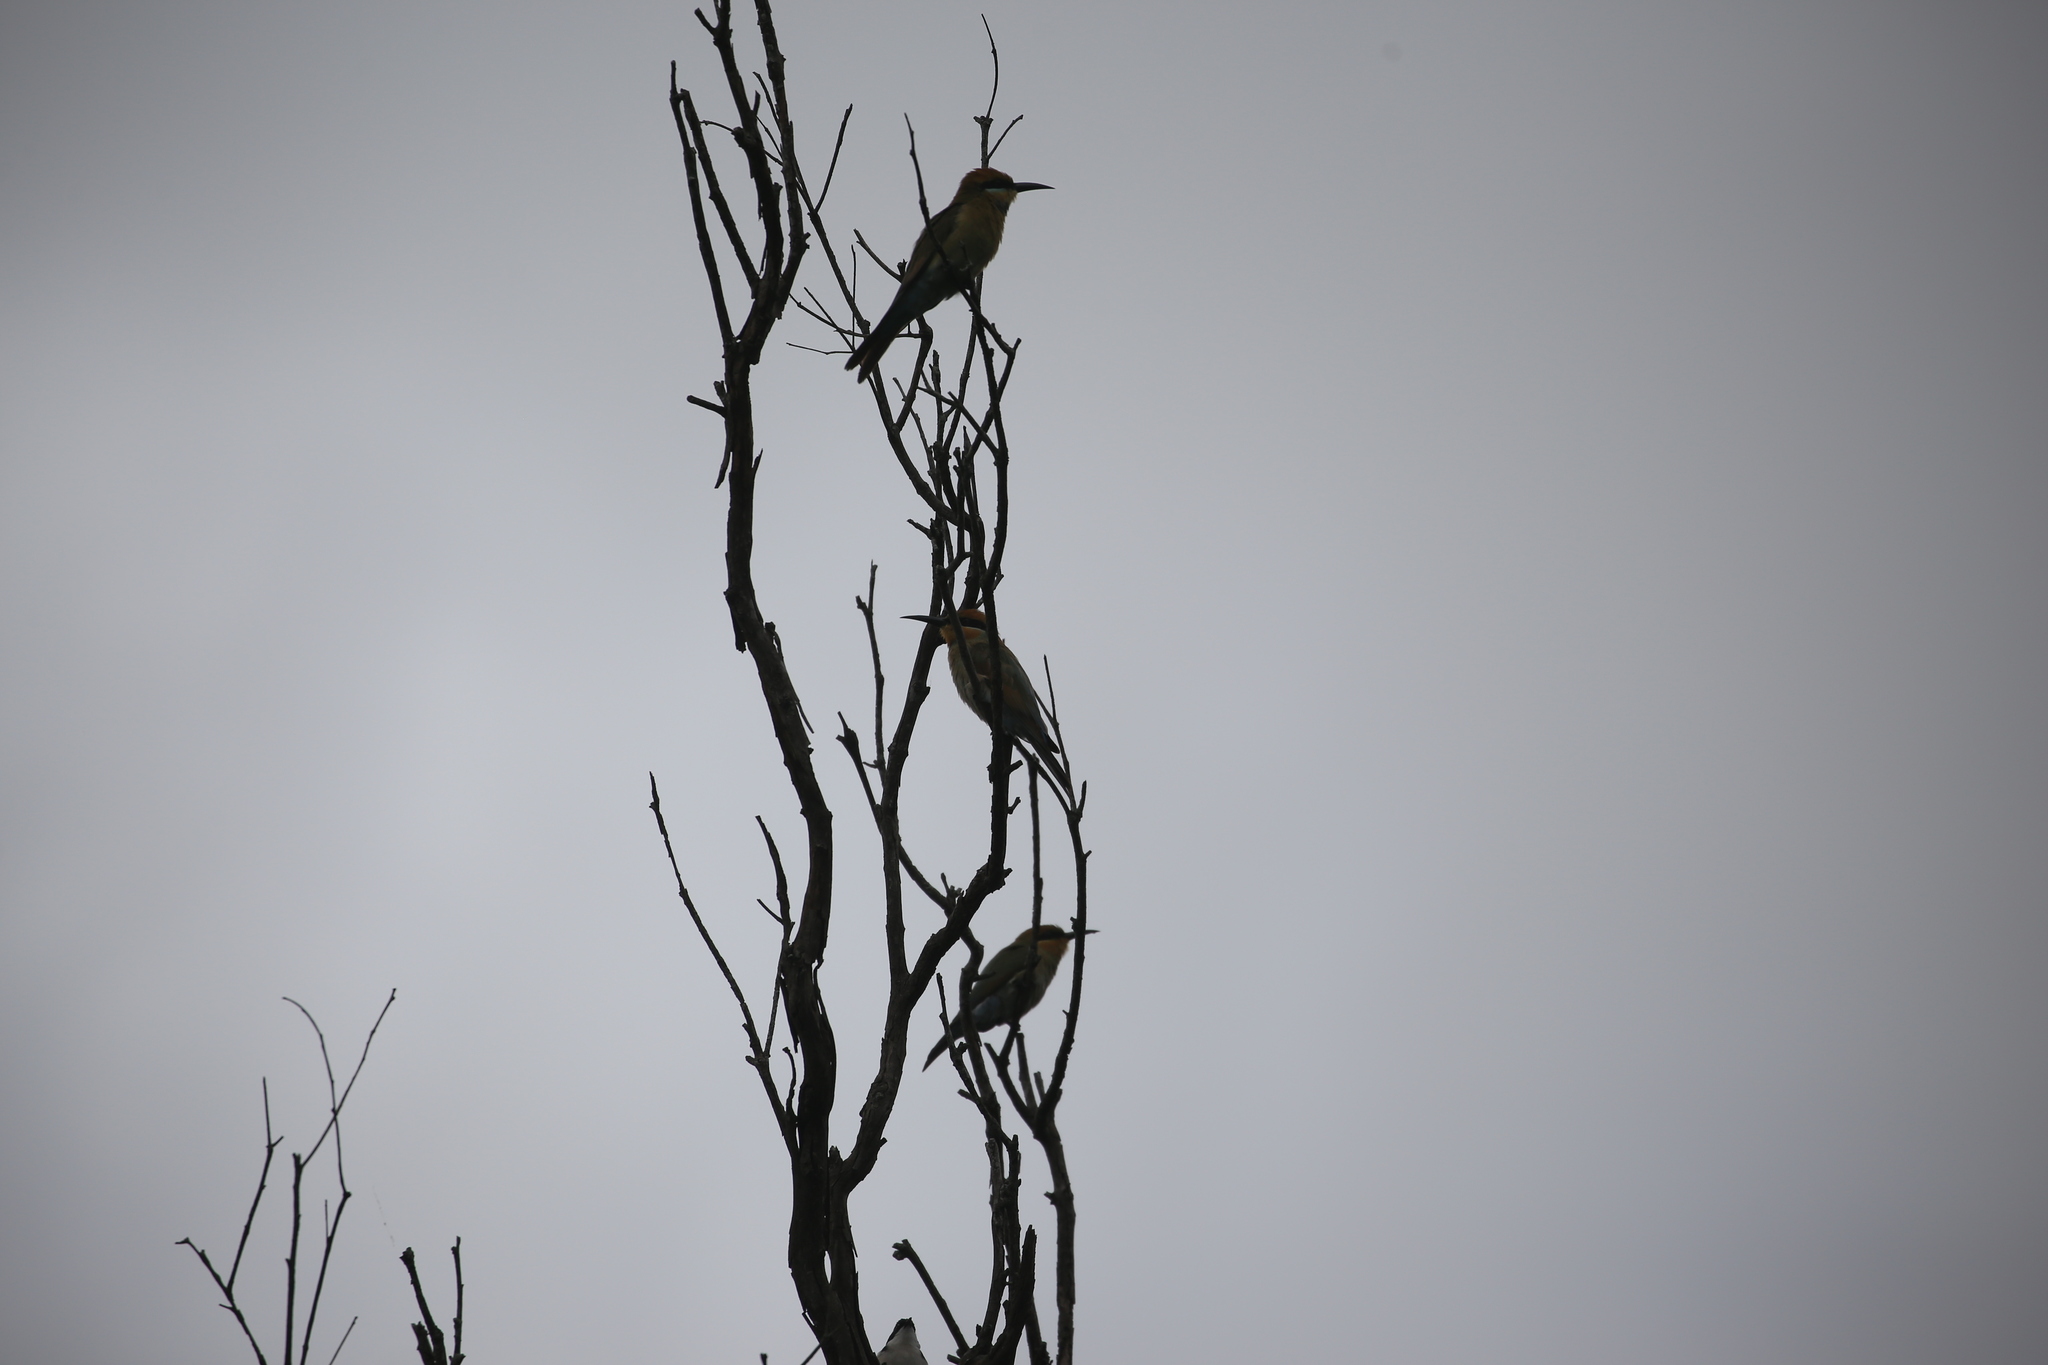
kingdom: Animalia
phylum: Chordata
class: Aves
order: Coraciiformes
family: Meropidae
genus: Merops
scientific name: Merops ornatus
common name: Rainbow bee-eater
